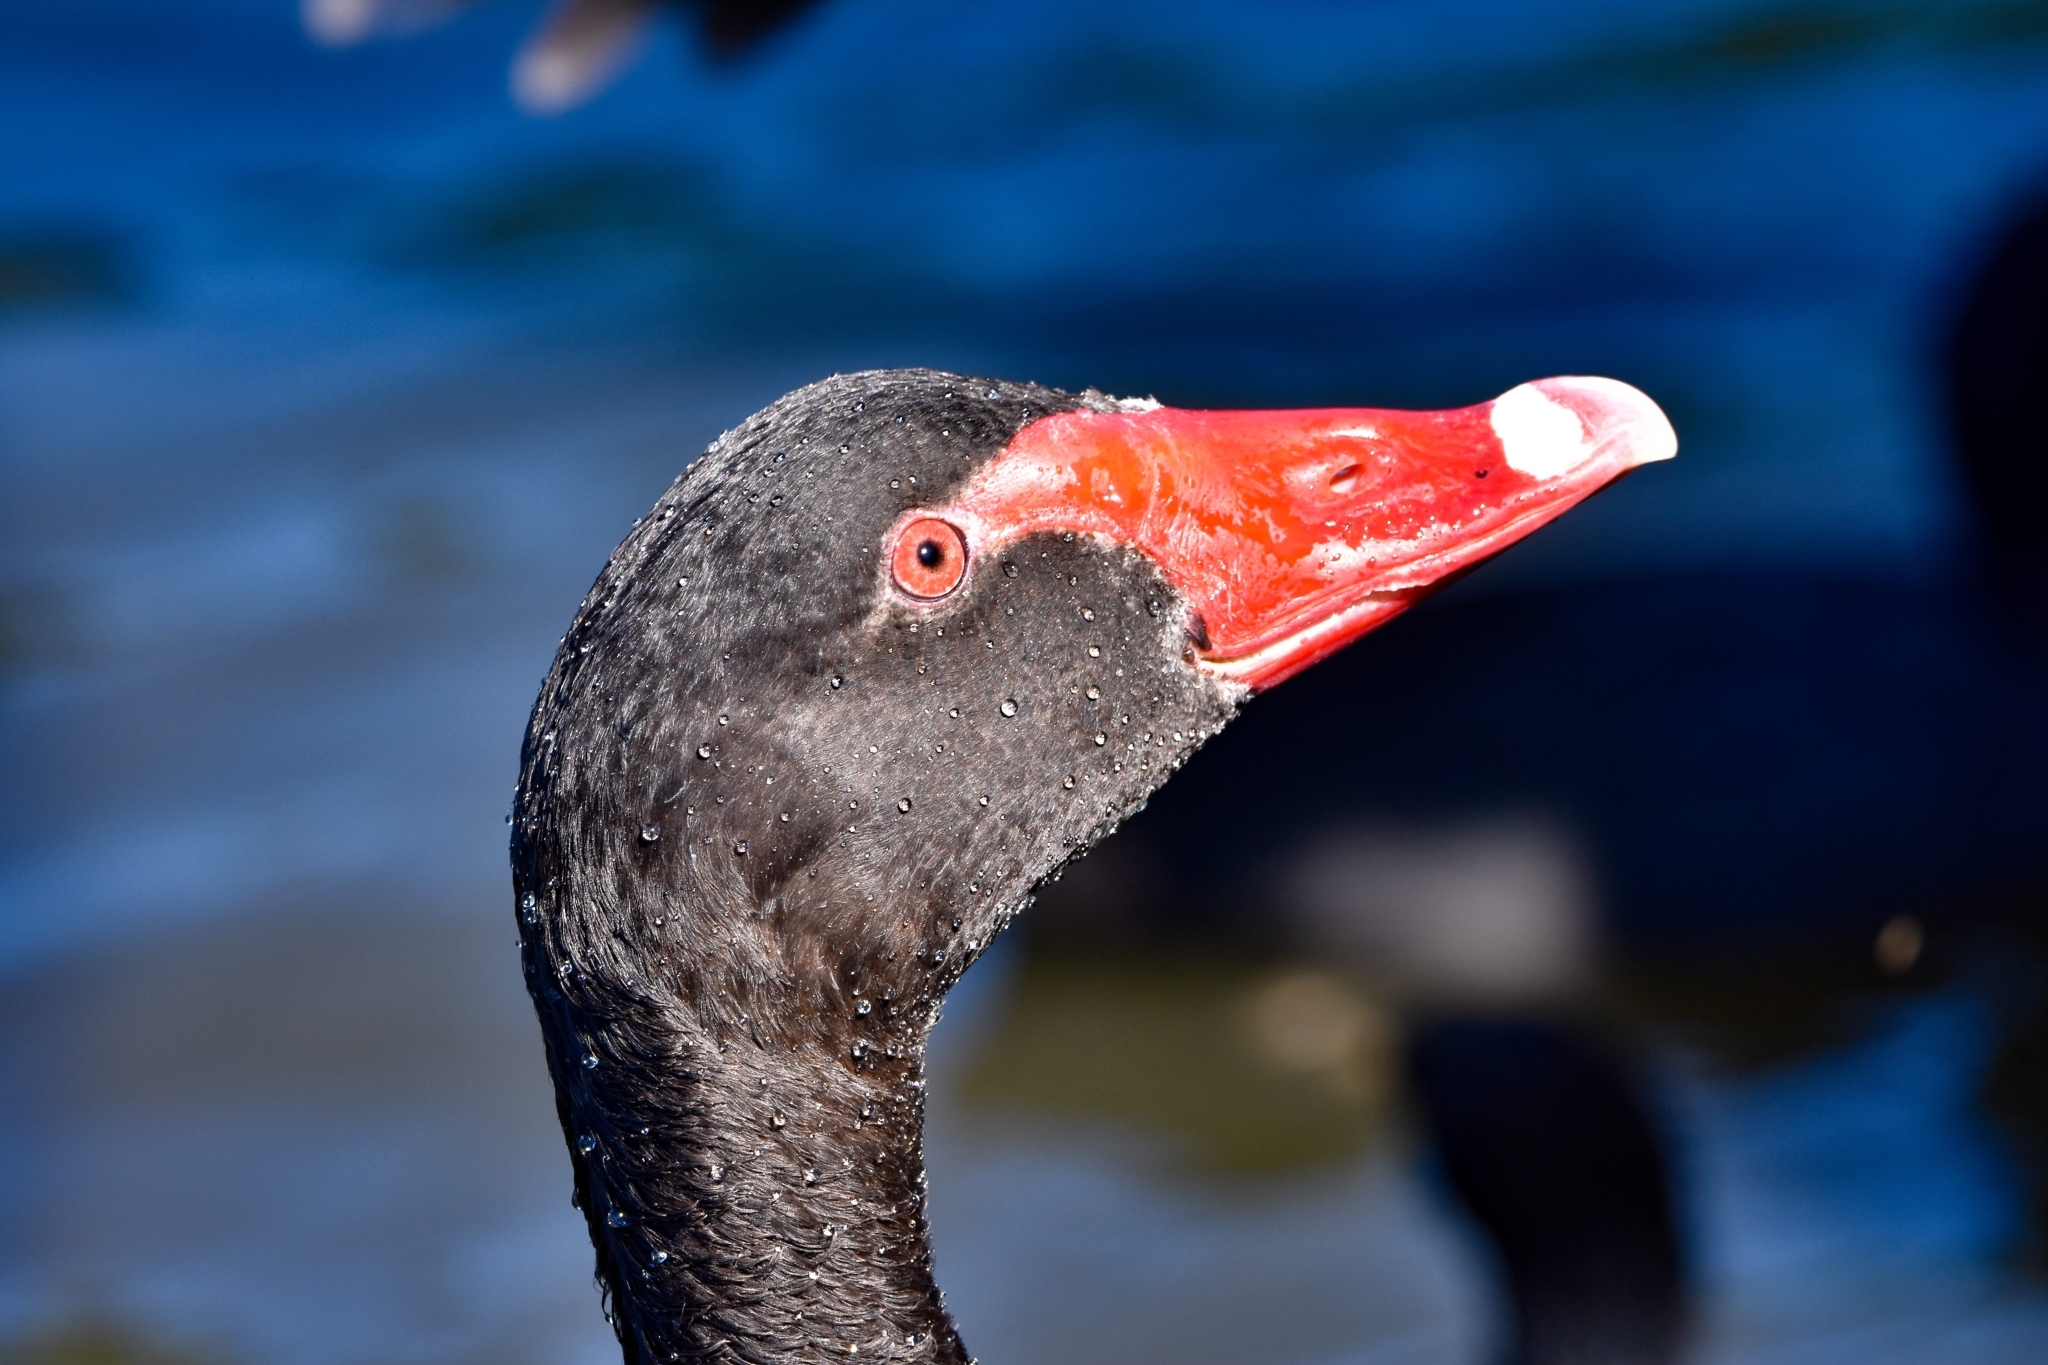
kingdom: Animalia
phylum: Chordata
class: Aves
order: Anseriformes
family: Anatidae
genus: Cygnus
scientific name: Cygnus atratus
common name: Black swan
